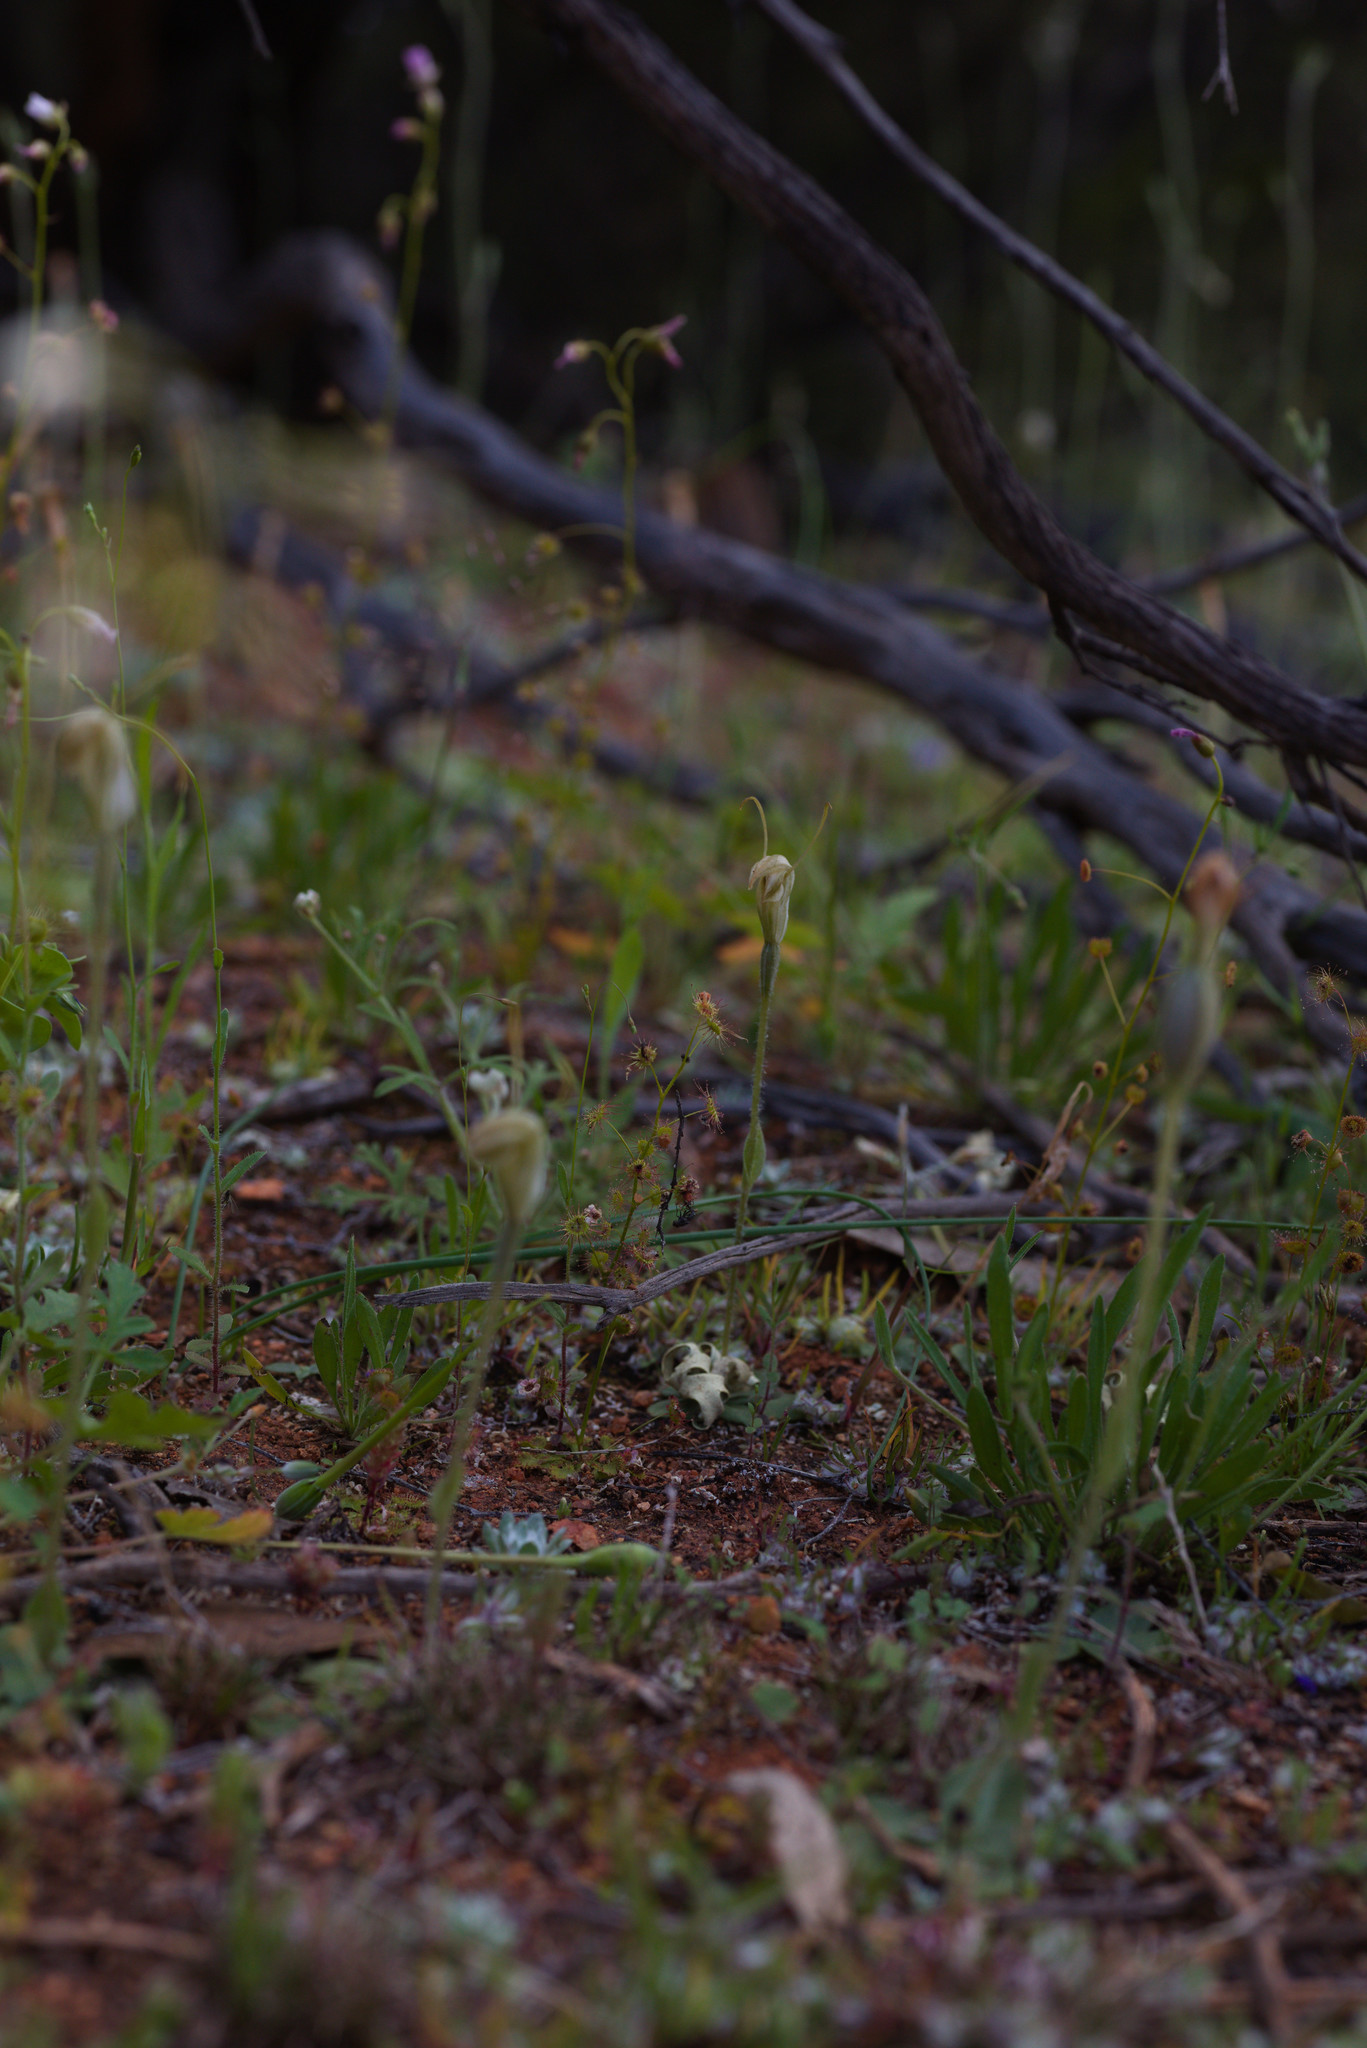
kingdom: Plantae
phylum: Tracheophyta
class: Liliopsida
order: Asparagales
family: Orchidaceae
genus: Pterostylis
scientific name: Pterostylis setulosa
